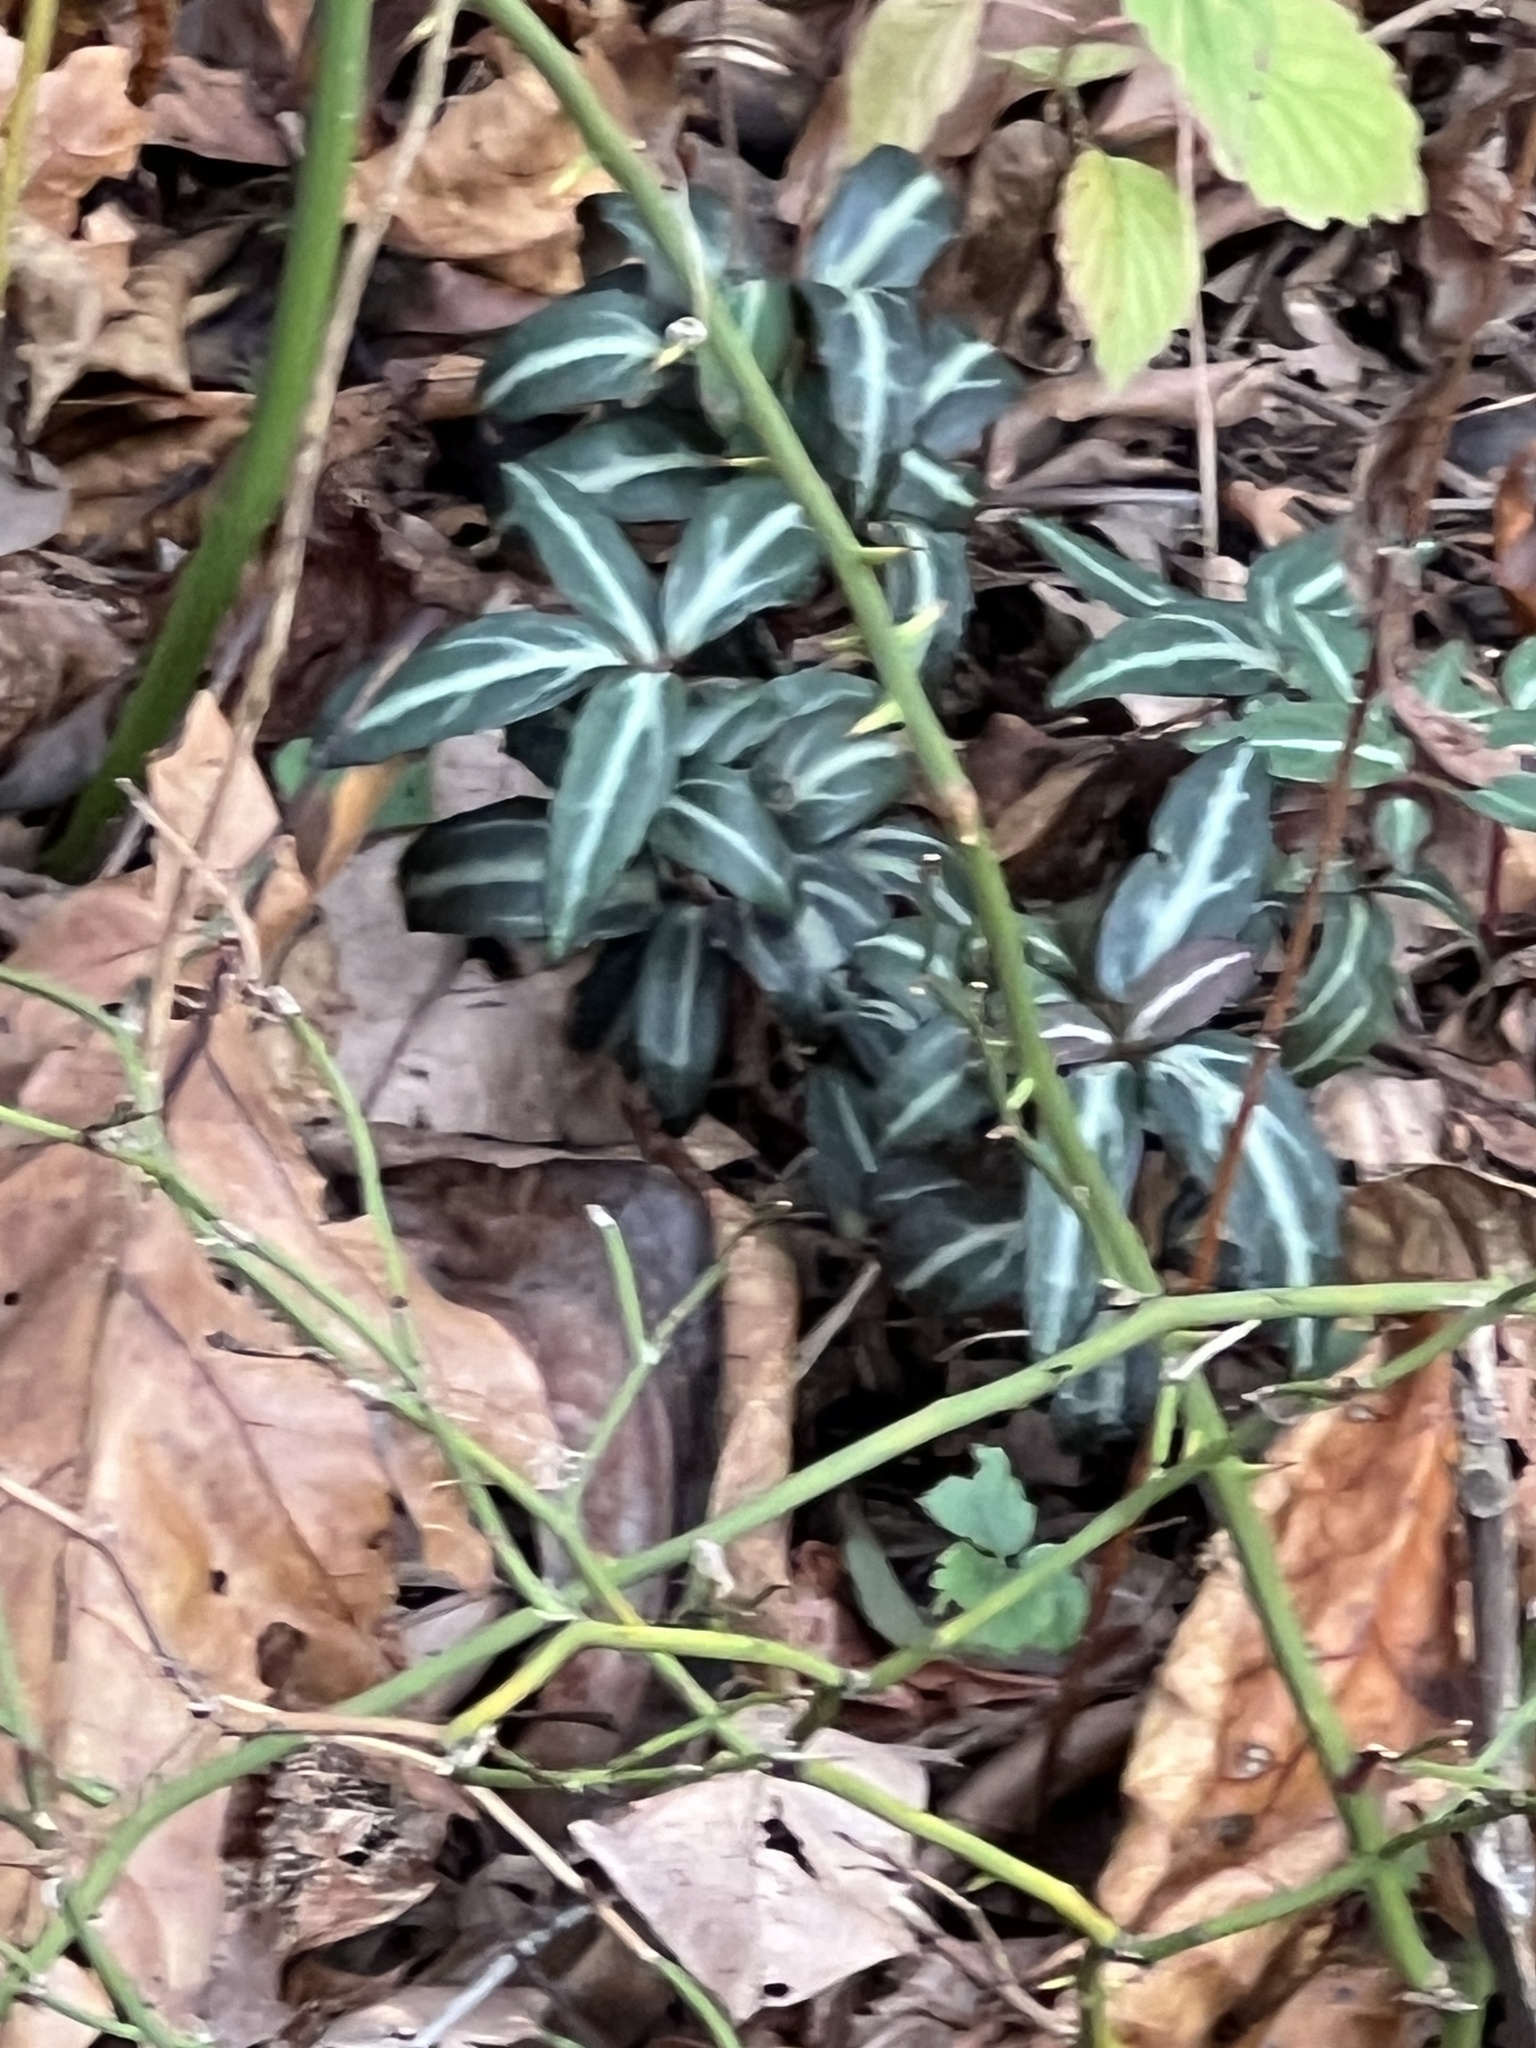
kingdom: Plantae
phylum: Tracheophyta
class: Magnoliopsida
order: Ericales
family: Ericaceae
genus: Chimaphila
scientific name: Chimaphila maculata
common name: Spotted pipsissewa
